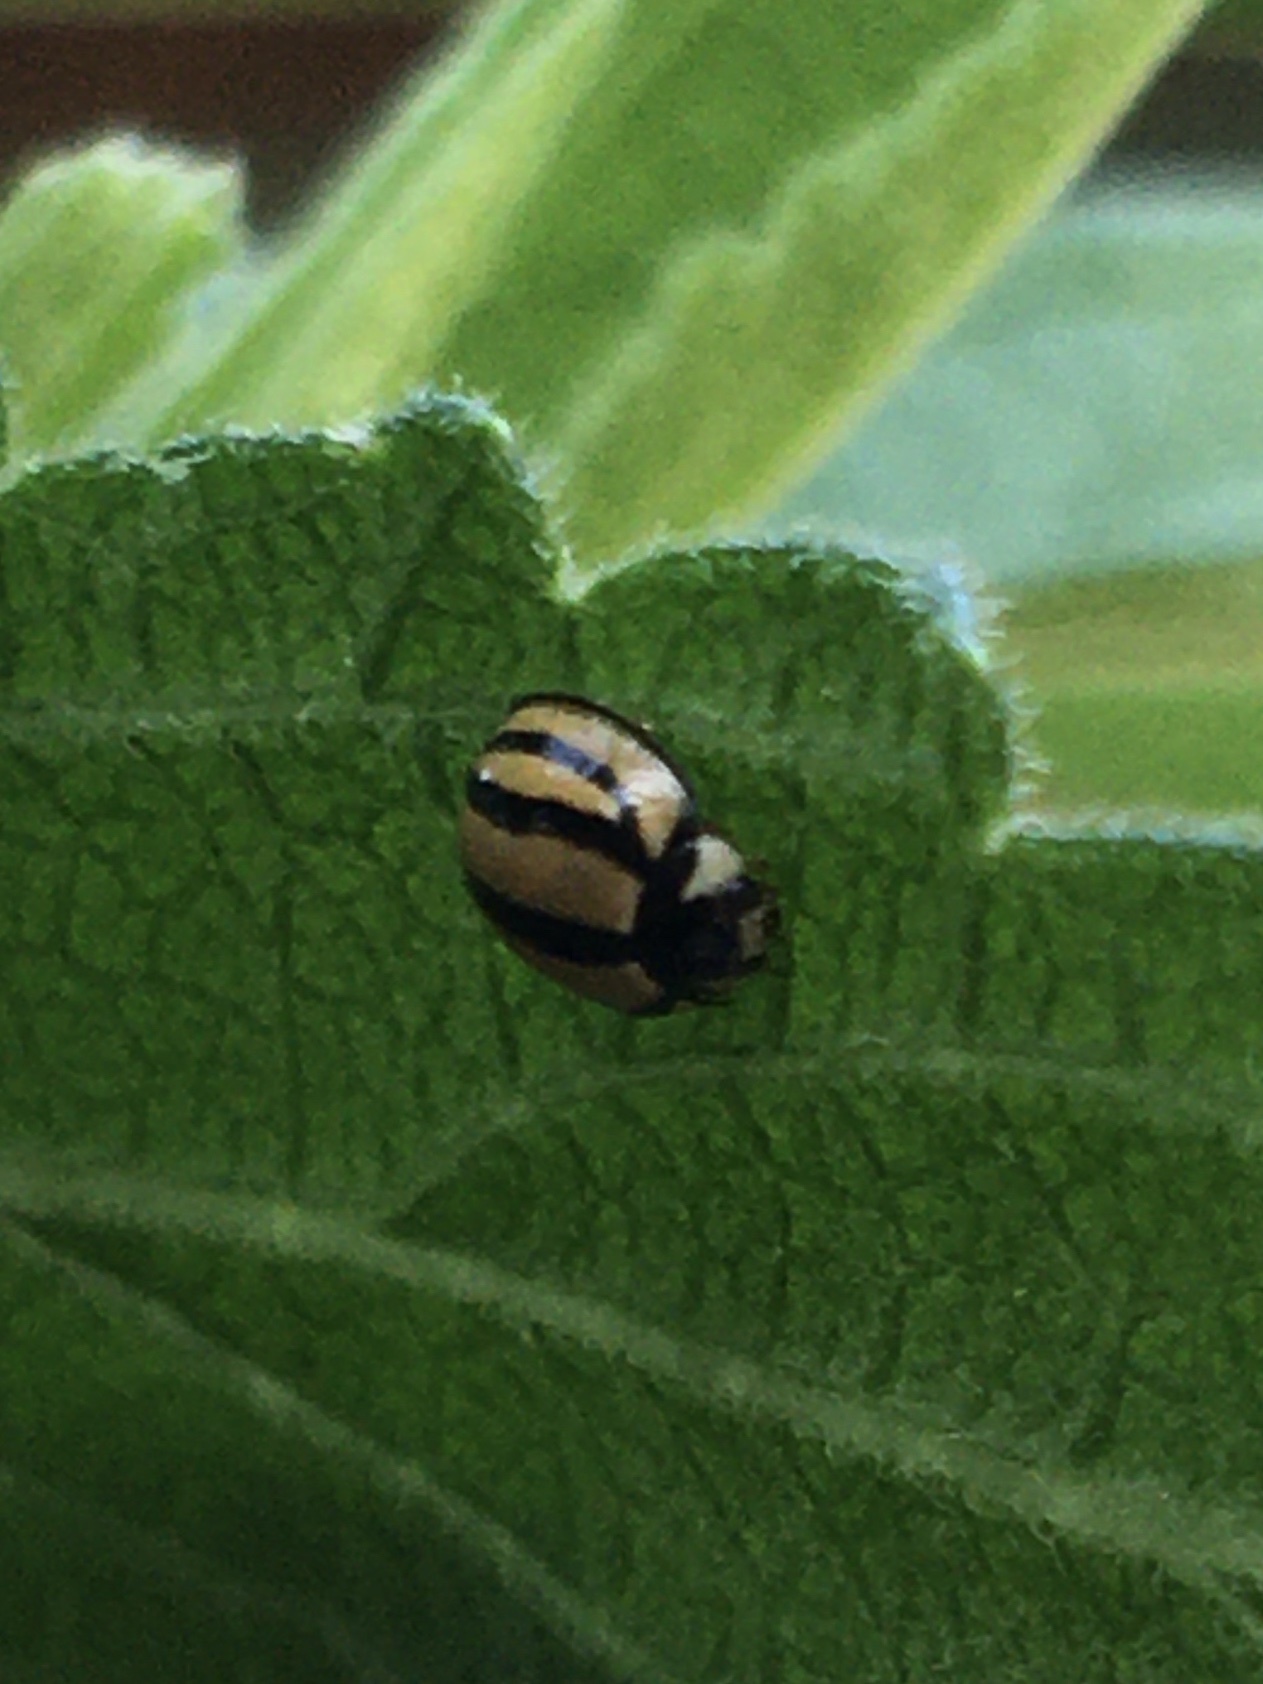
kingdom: Animalia
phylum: Arthropoda
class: Insecta
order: Coleoptera
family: Coccinellidae
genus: Cheilomenes
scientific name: Cheilomenes propinqua
